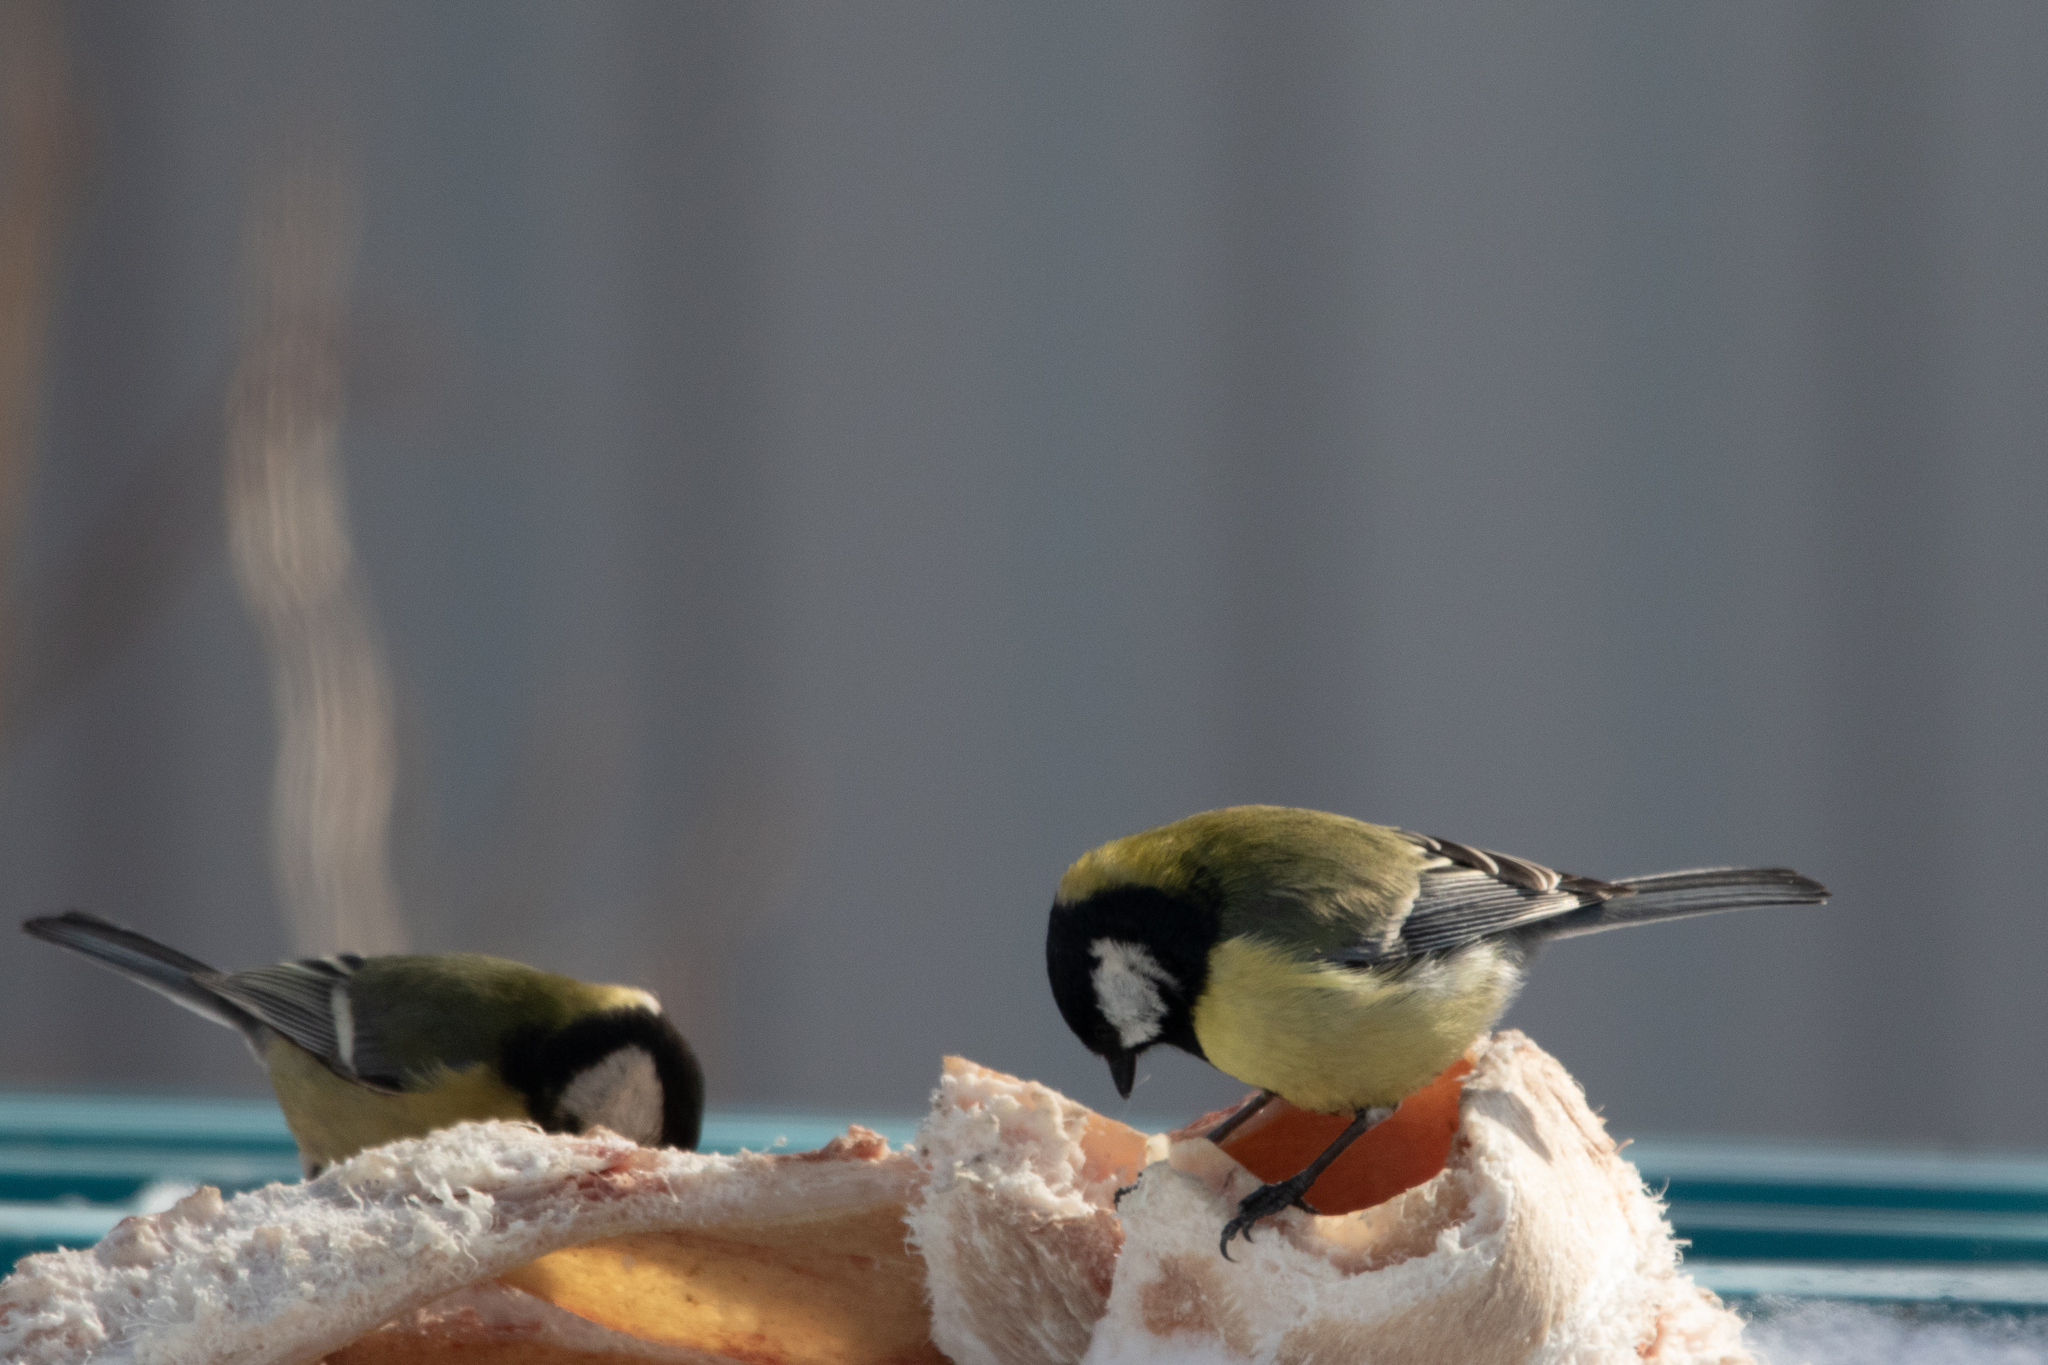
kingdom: Animalia
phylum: Chordata
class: Aves
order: Passeriformes
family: Paridae
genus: Parus
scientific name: Parus major
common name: Great tit
